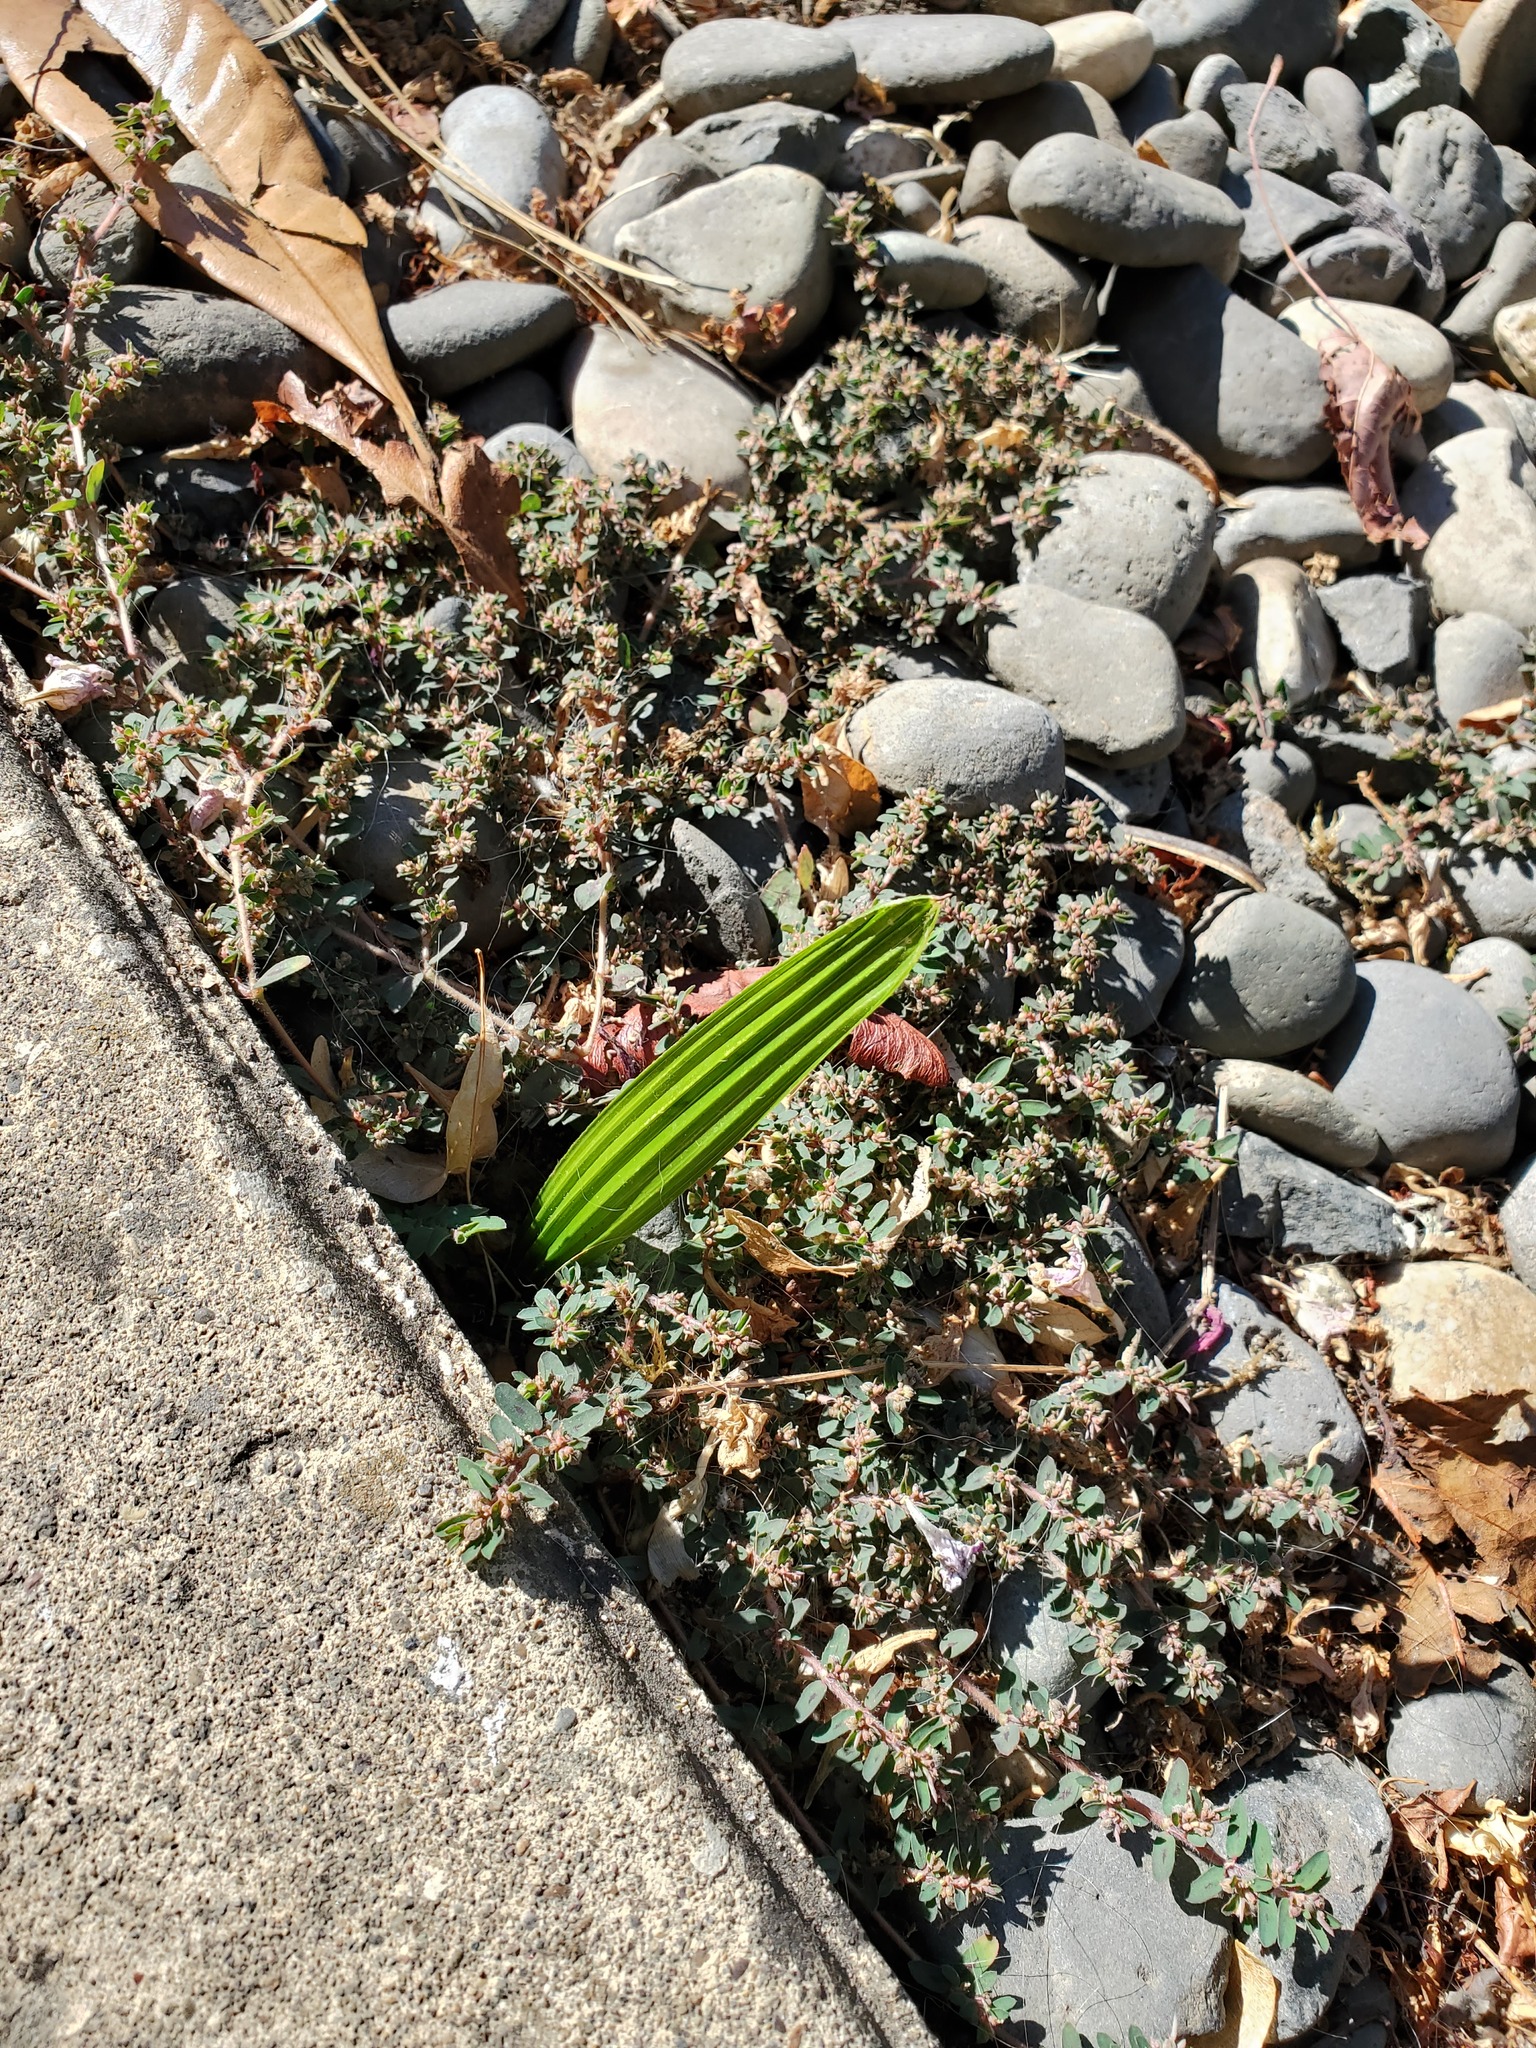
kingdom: Plantae
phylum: Tracheophyta
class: Liliopsida
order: Arecales
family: Arecaceae
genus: Trachycarpus
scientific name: Trachycarpus fortunei
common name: Chusan palm
